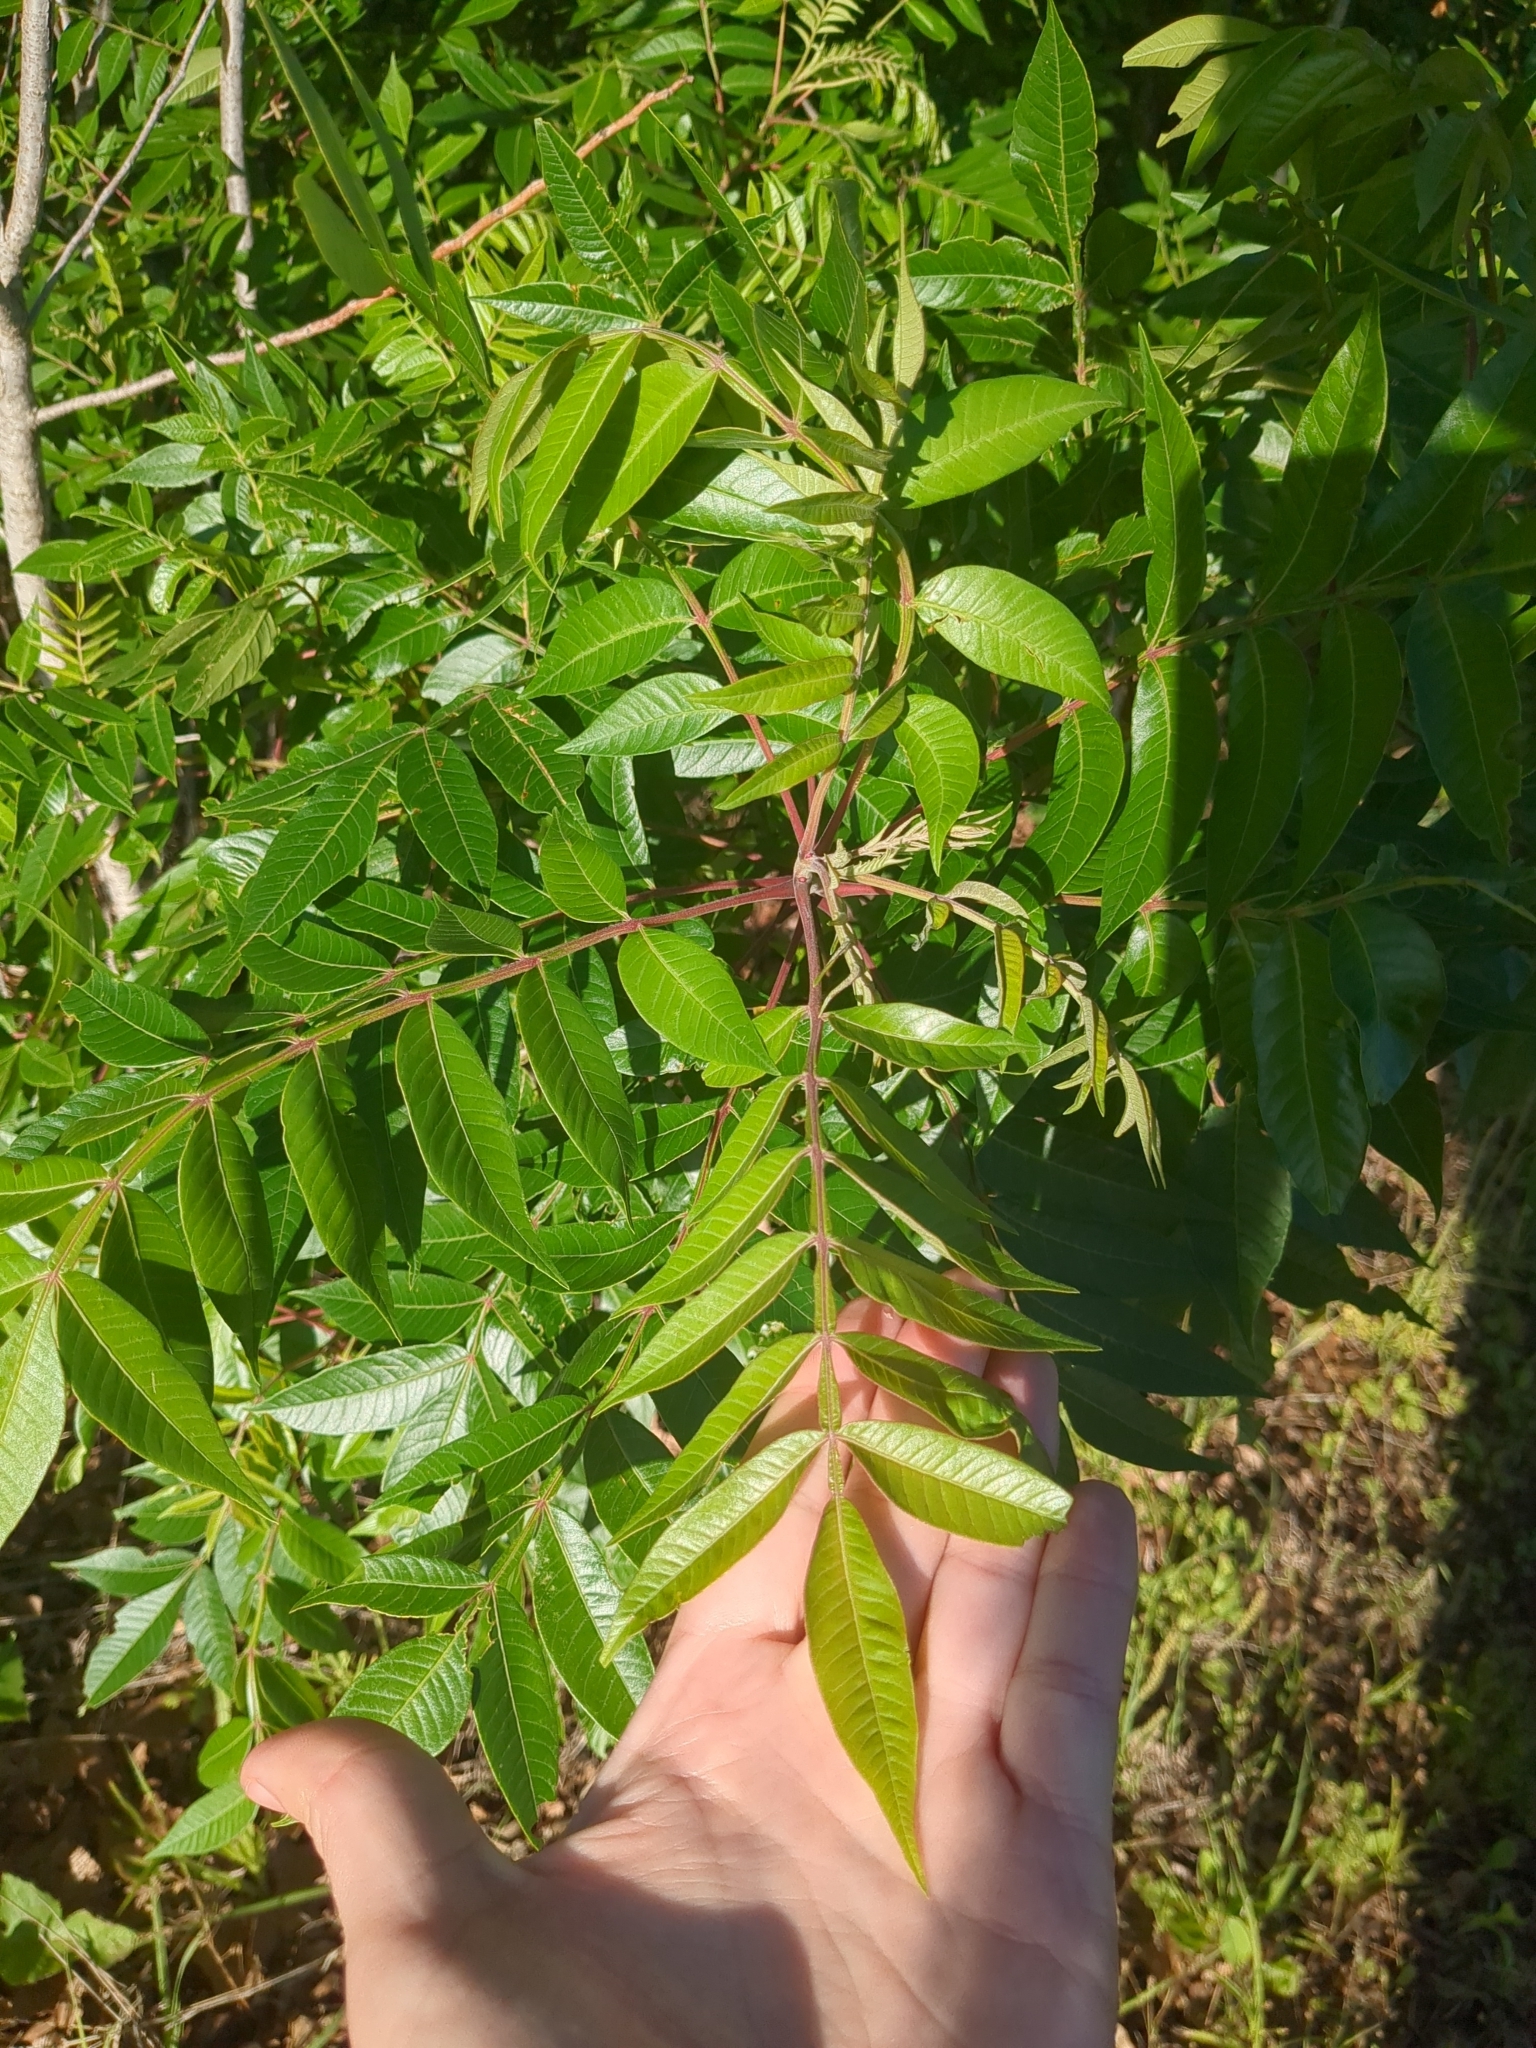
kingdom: Plantae
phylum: Tracheophyta
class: Magnoliopsida
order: Sapindales
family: Anacardiaceae
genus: Rhus
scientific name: Rhus copallina
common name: Shining sumac
